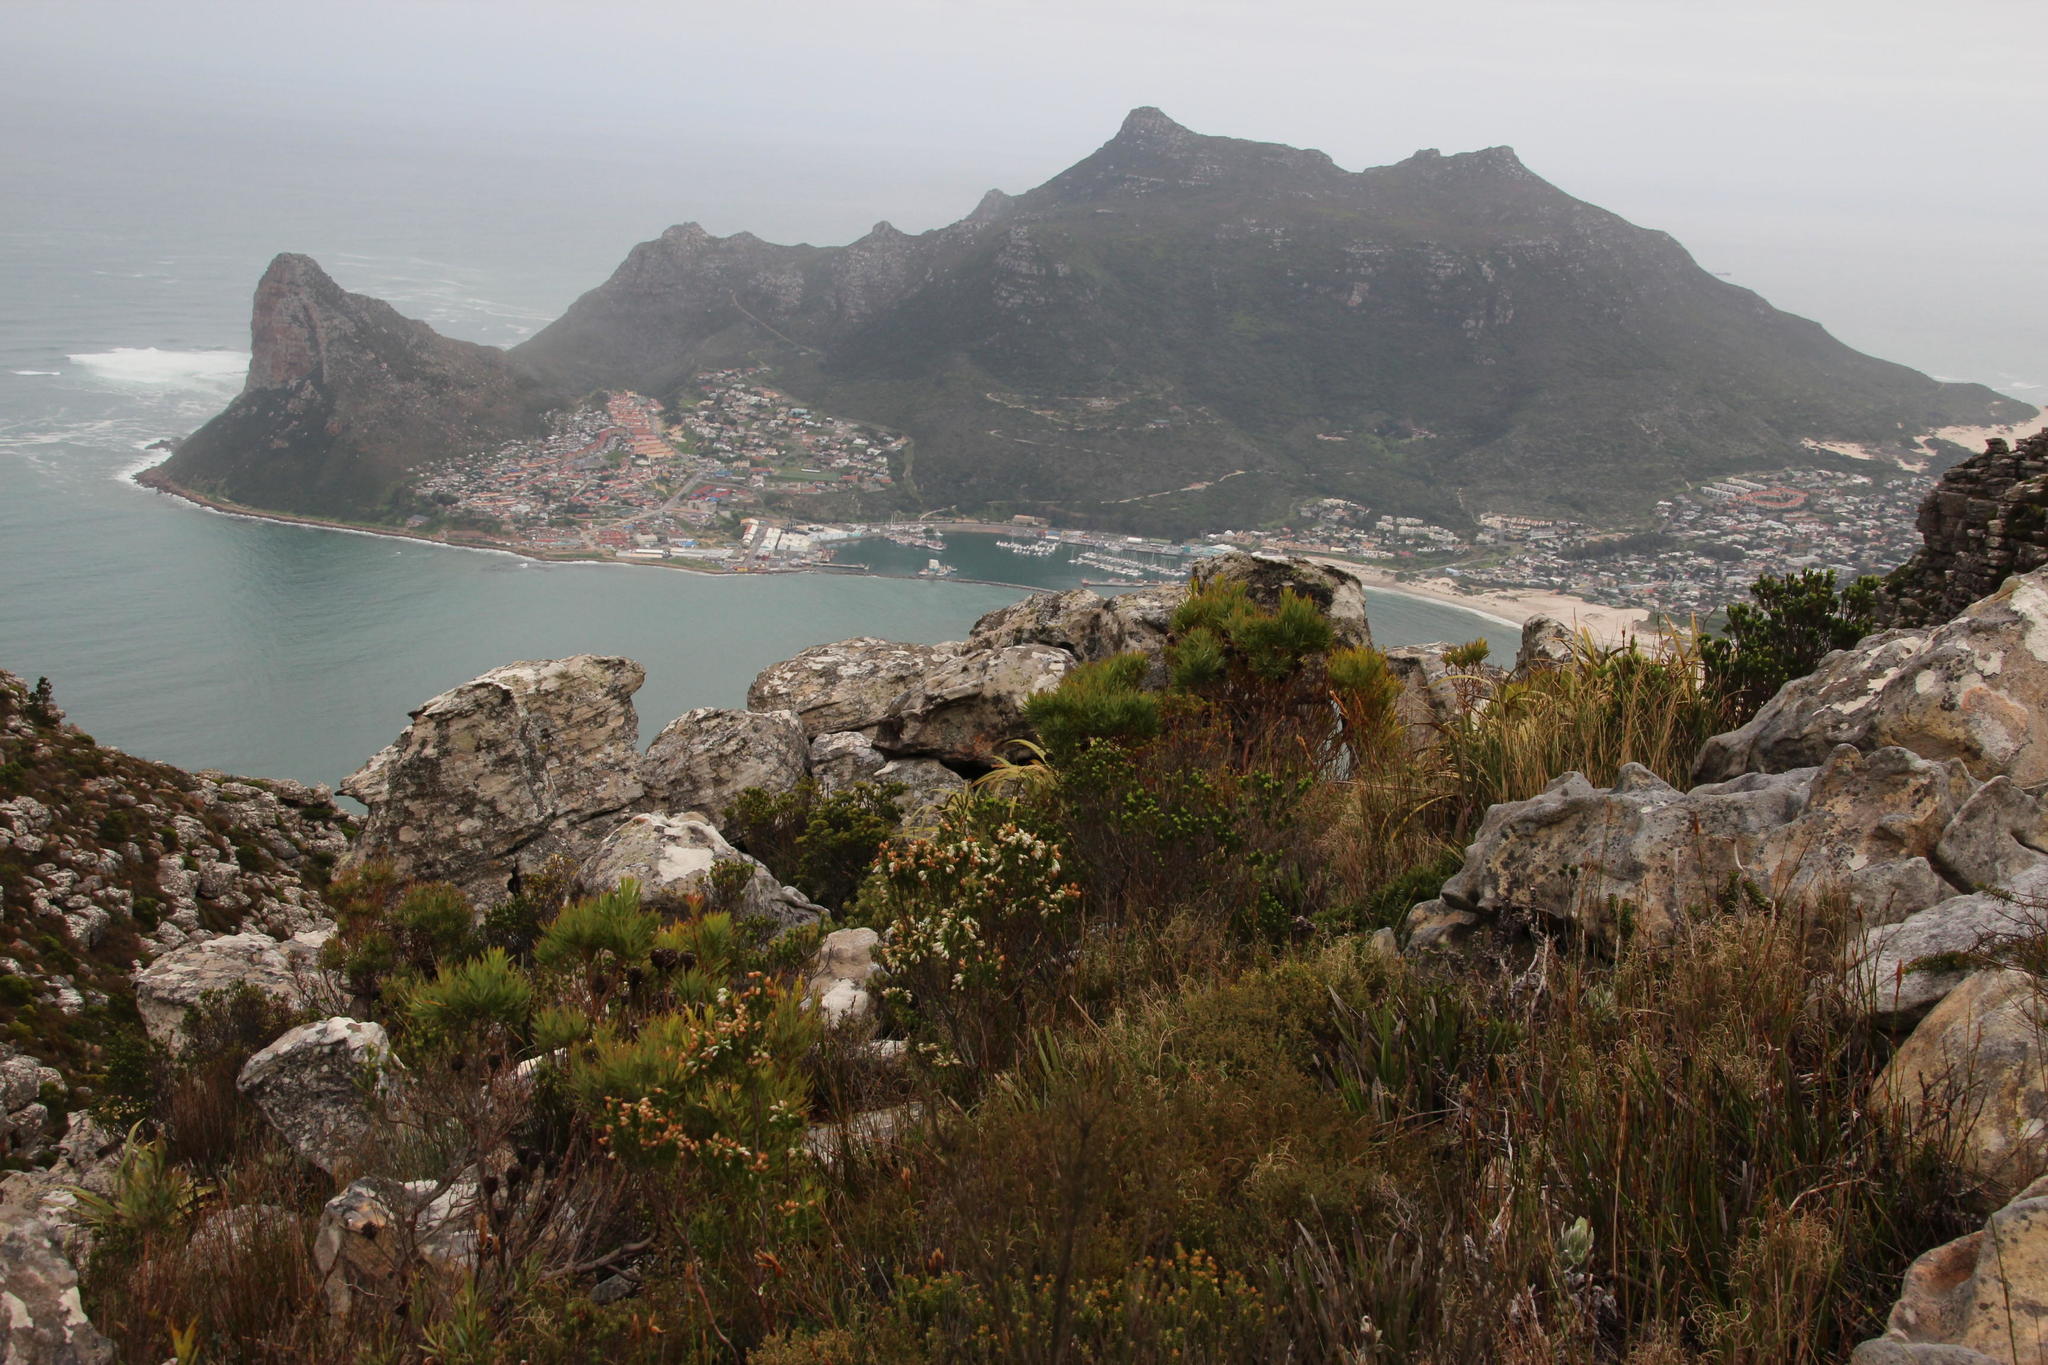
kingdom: Plantae
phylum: Tracheophyta
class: Magnoliopsida
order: Ericales
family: Ericaceae
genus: Erica
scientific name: Erica physodes
